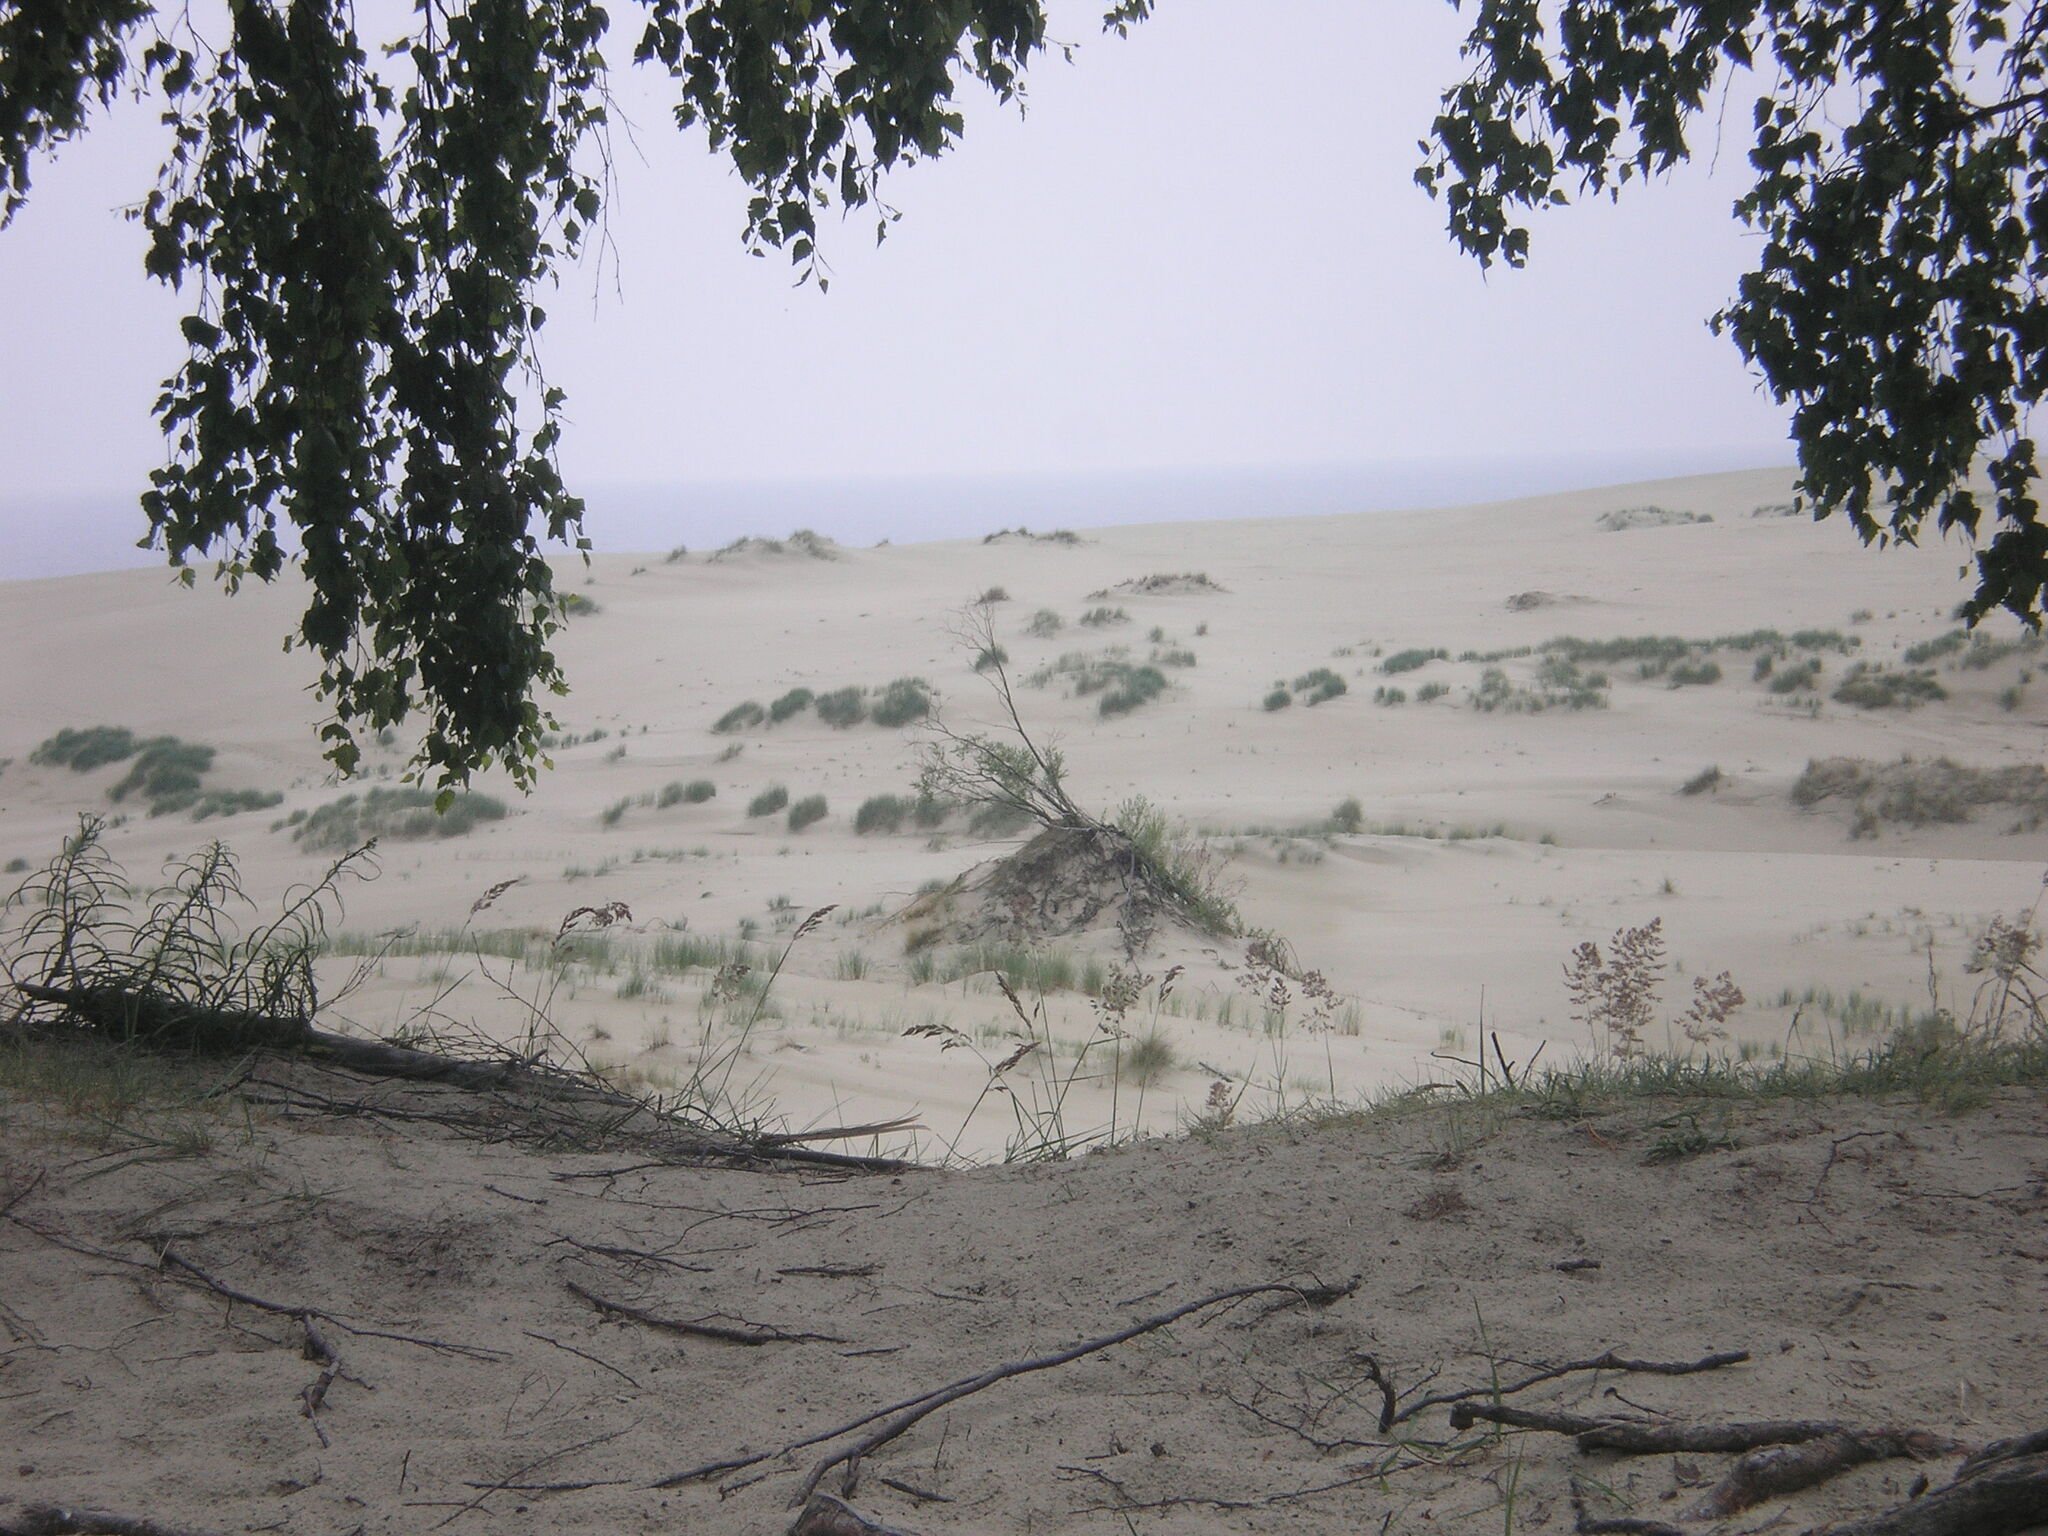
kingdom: Plantae
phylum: Tracheophyta
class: Magnoliopsida
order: Fagales
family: Betulaceae
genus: Betula
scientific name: Betula pendula
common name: Silver birch
